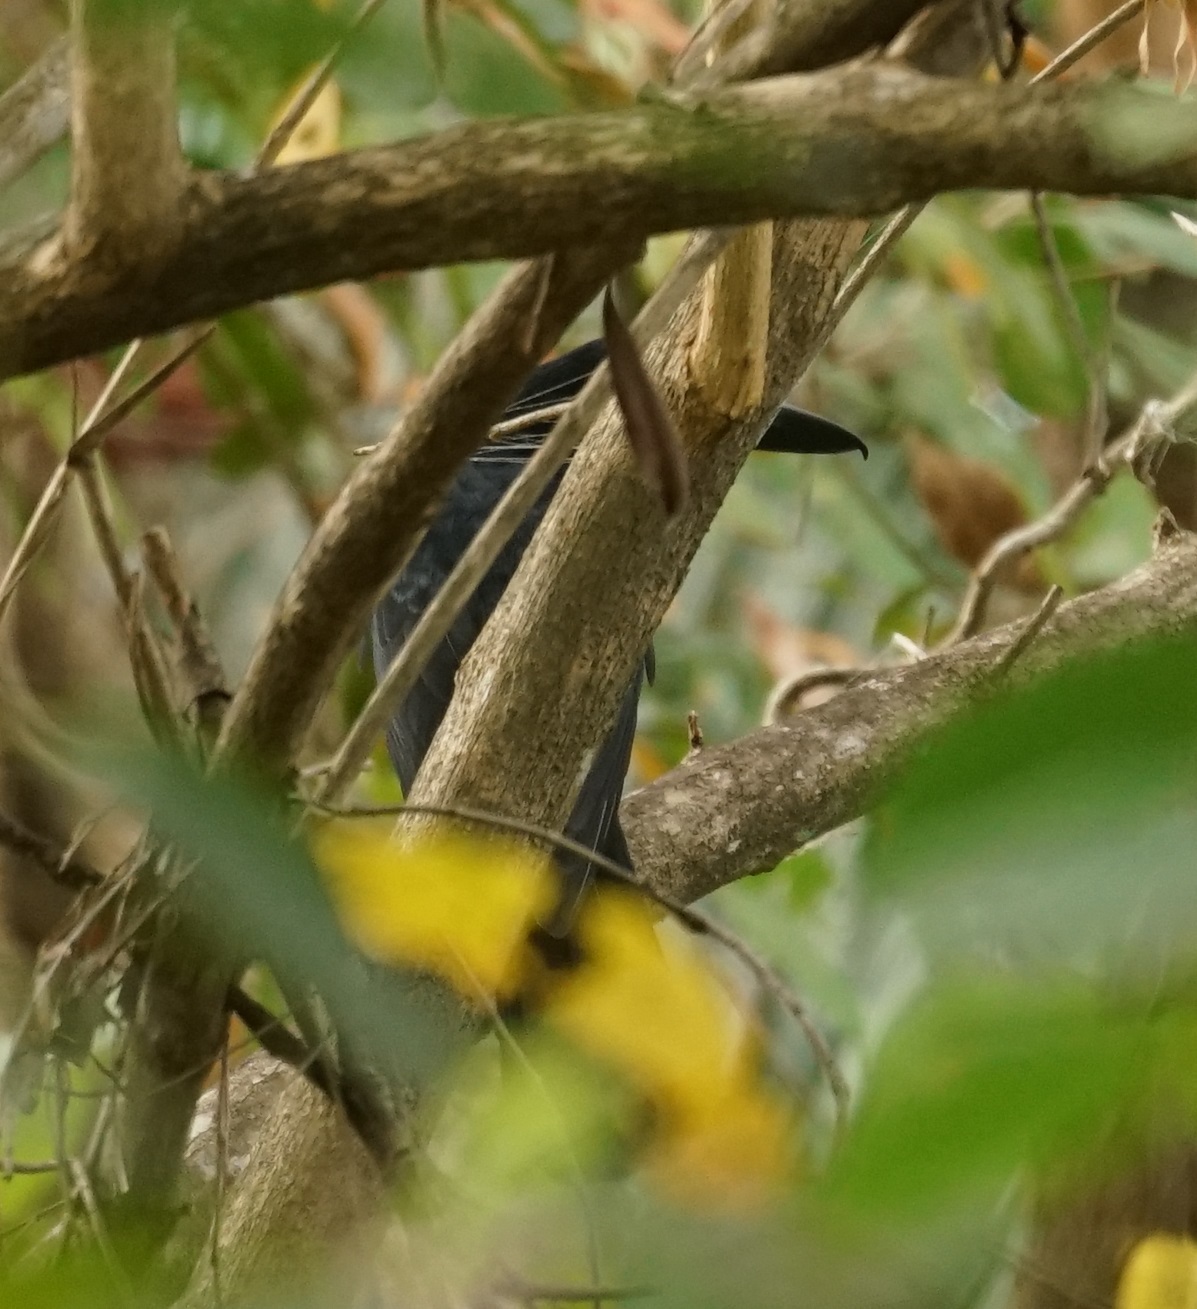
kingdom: Animalia
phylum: Chordata
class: Aves
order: Passeriformes
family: Artamidae
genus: Melloria
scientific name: Melloria quoyi
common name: Black butcherbird
